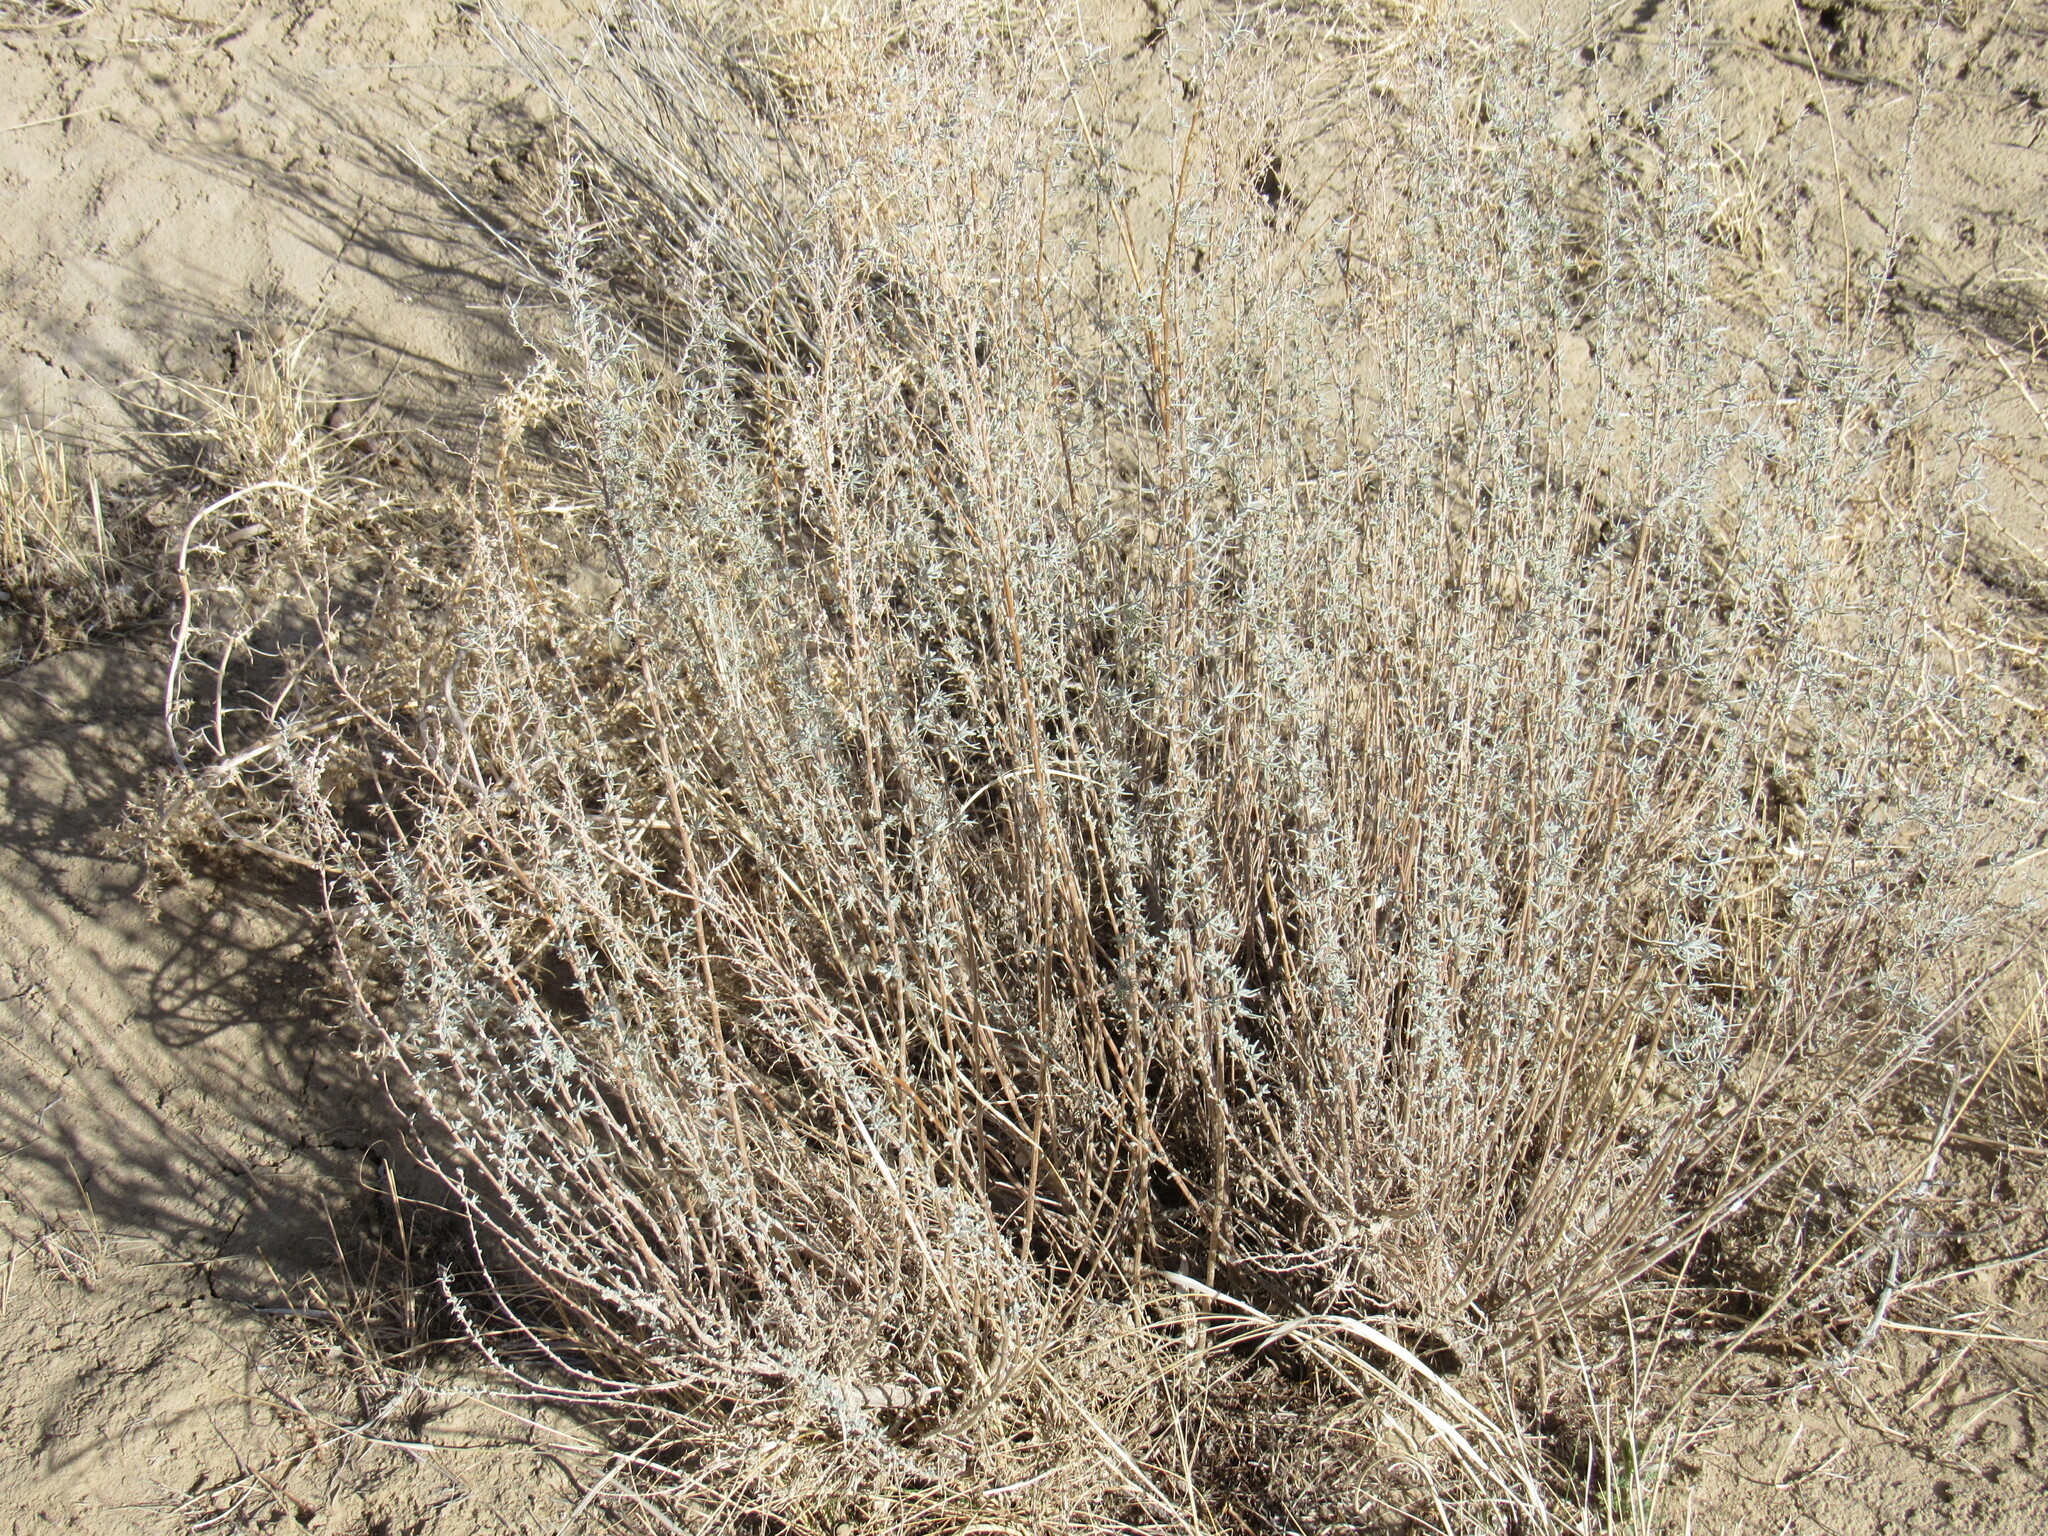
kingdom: Plantae
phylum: Tracheophyta
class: Magnoliopsida
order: Asterales
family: Asteraceae
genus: Artemisia
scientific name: Artemisia filifolia
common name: Sand-sage
